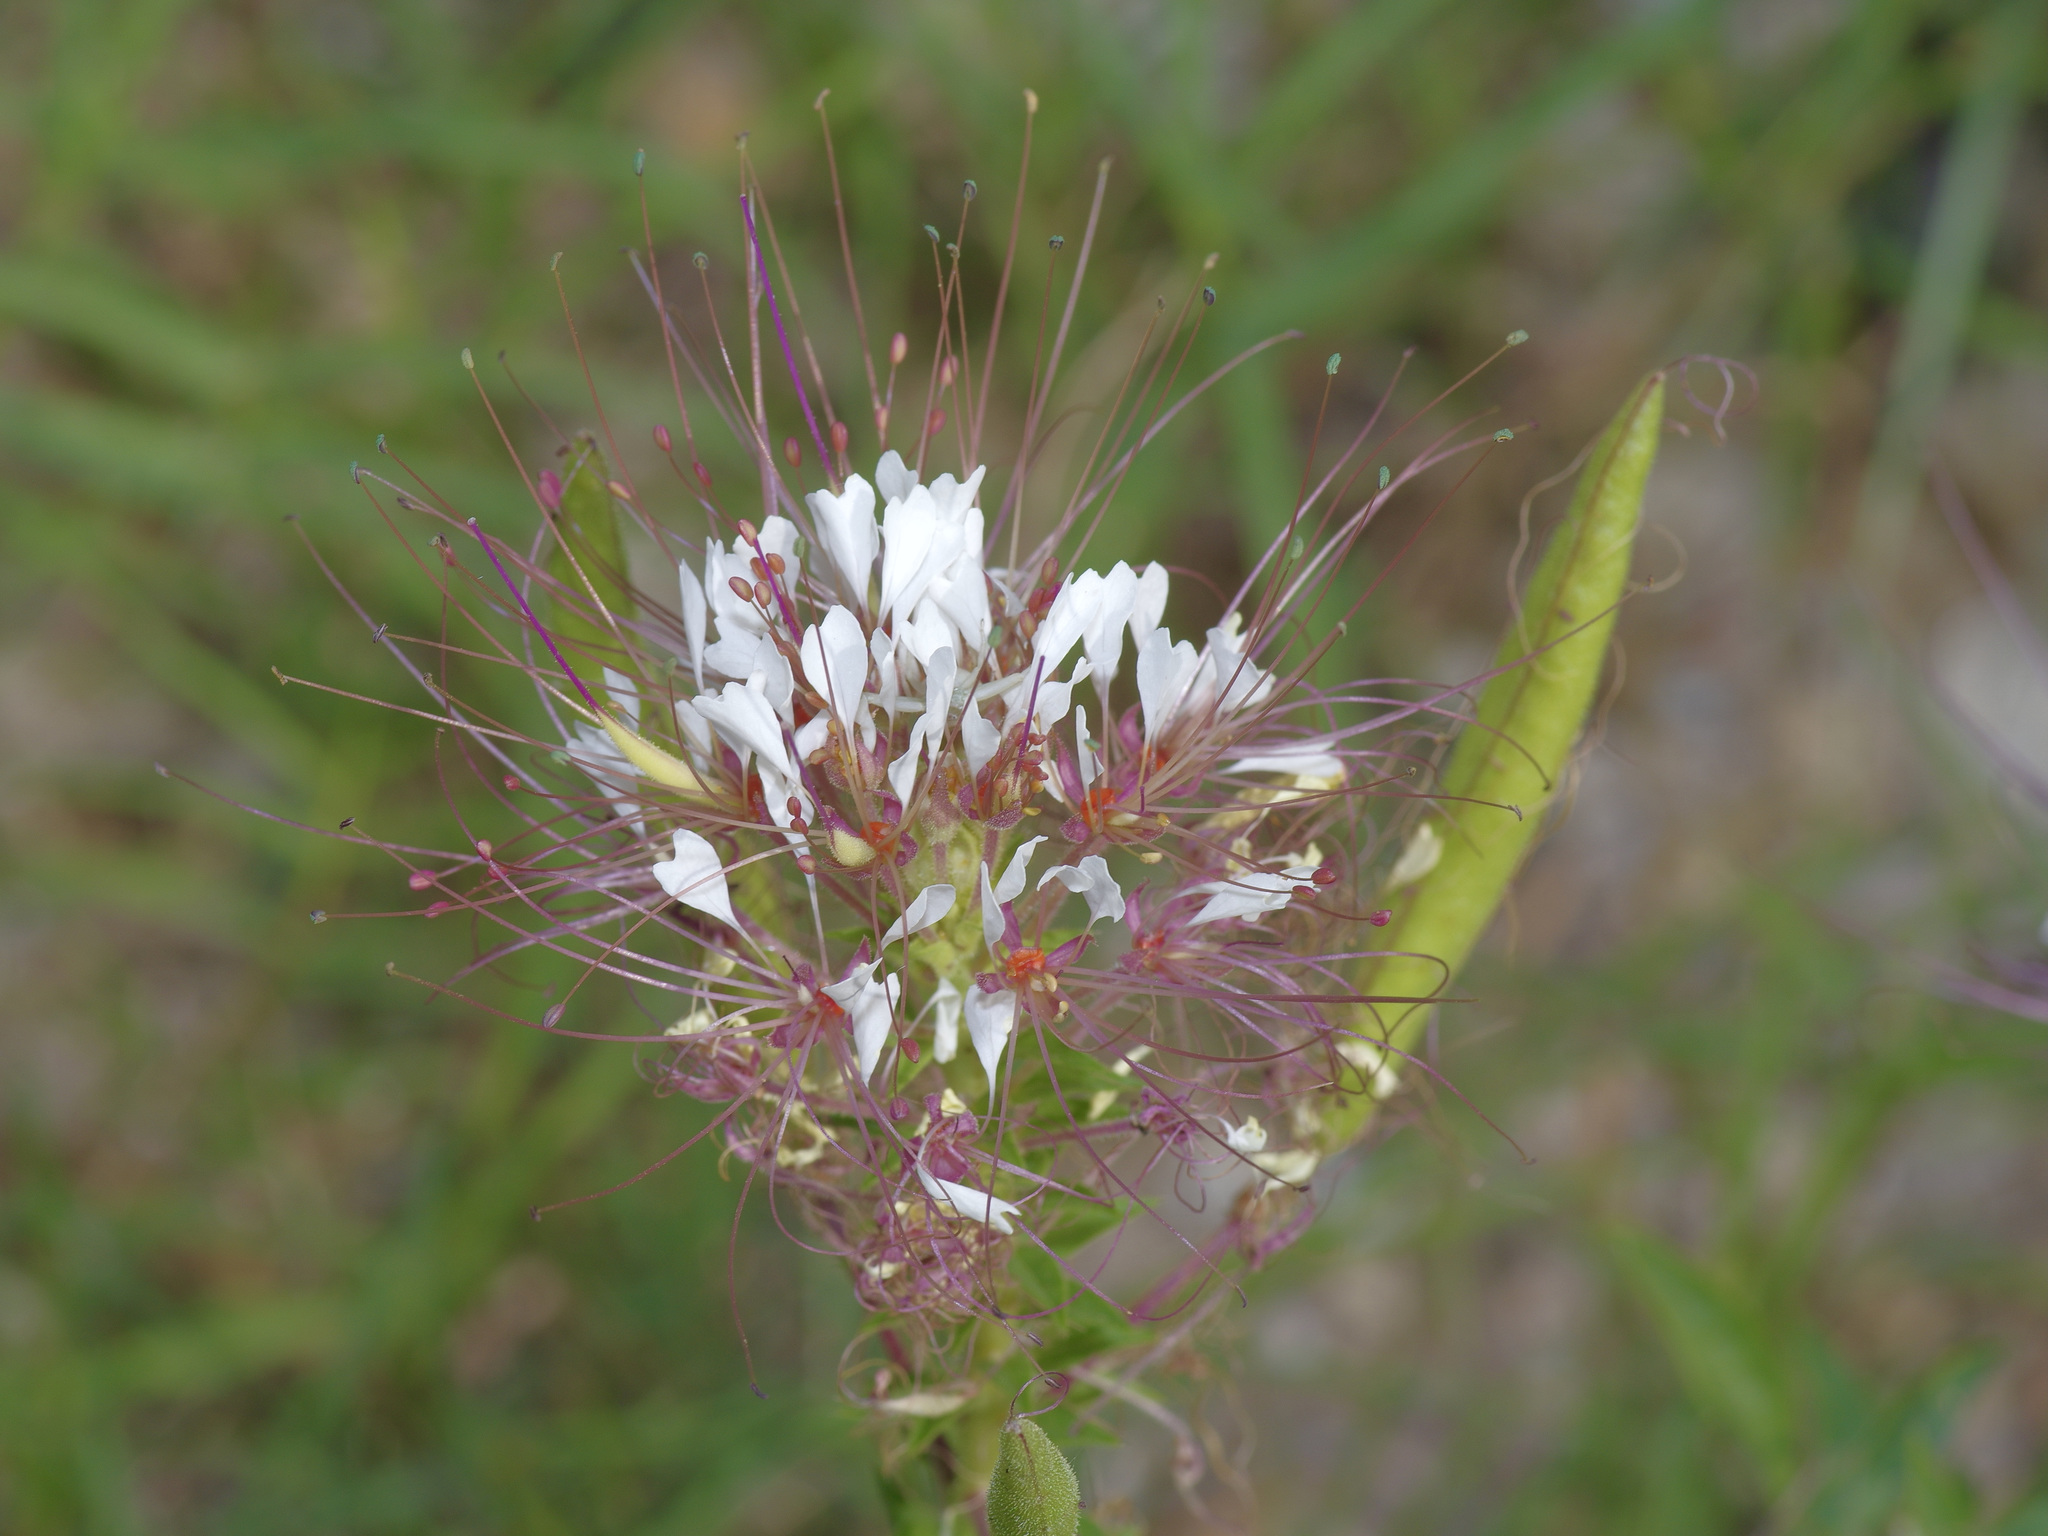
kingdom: Plantae
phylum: Tracheophyta
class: Magnoliopsida
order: Brassicales
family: Cleomaceae
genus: Polanisia
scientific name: Polanisia dodecandra
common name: Clammyweed
